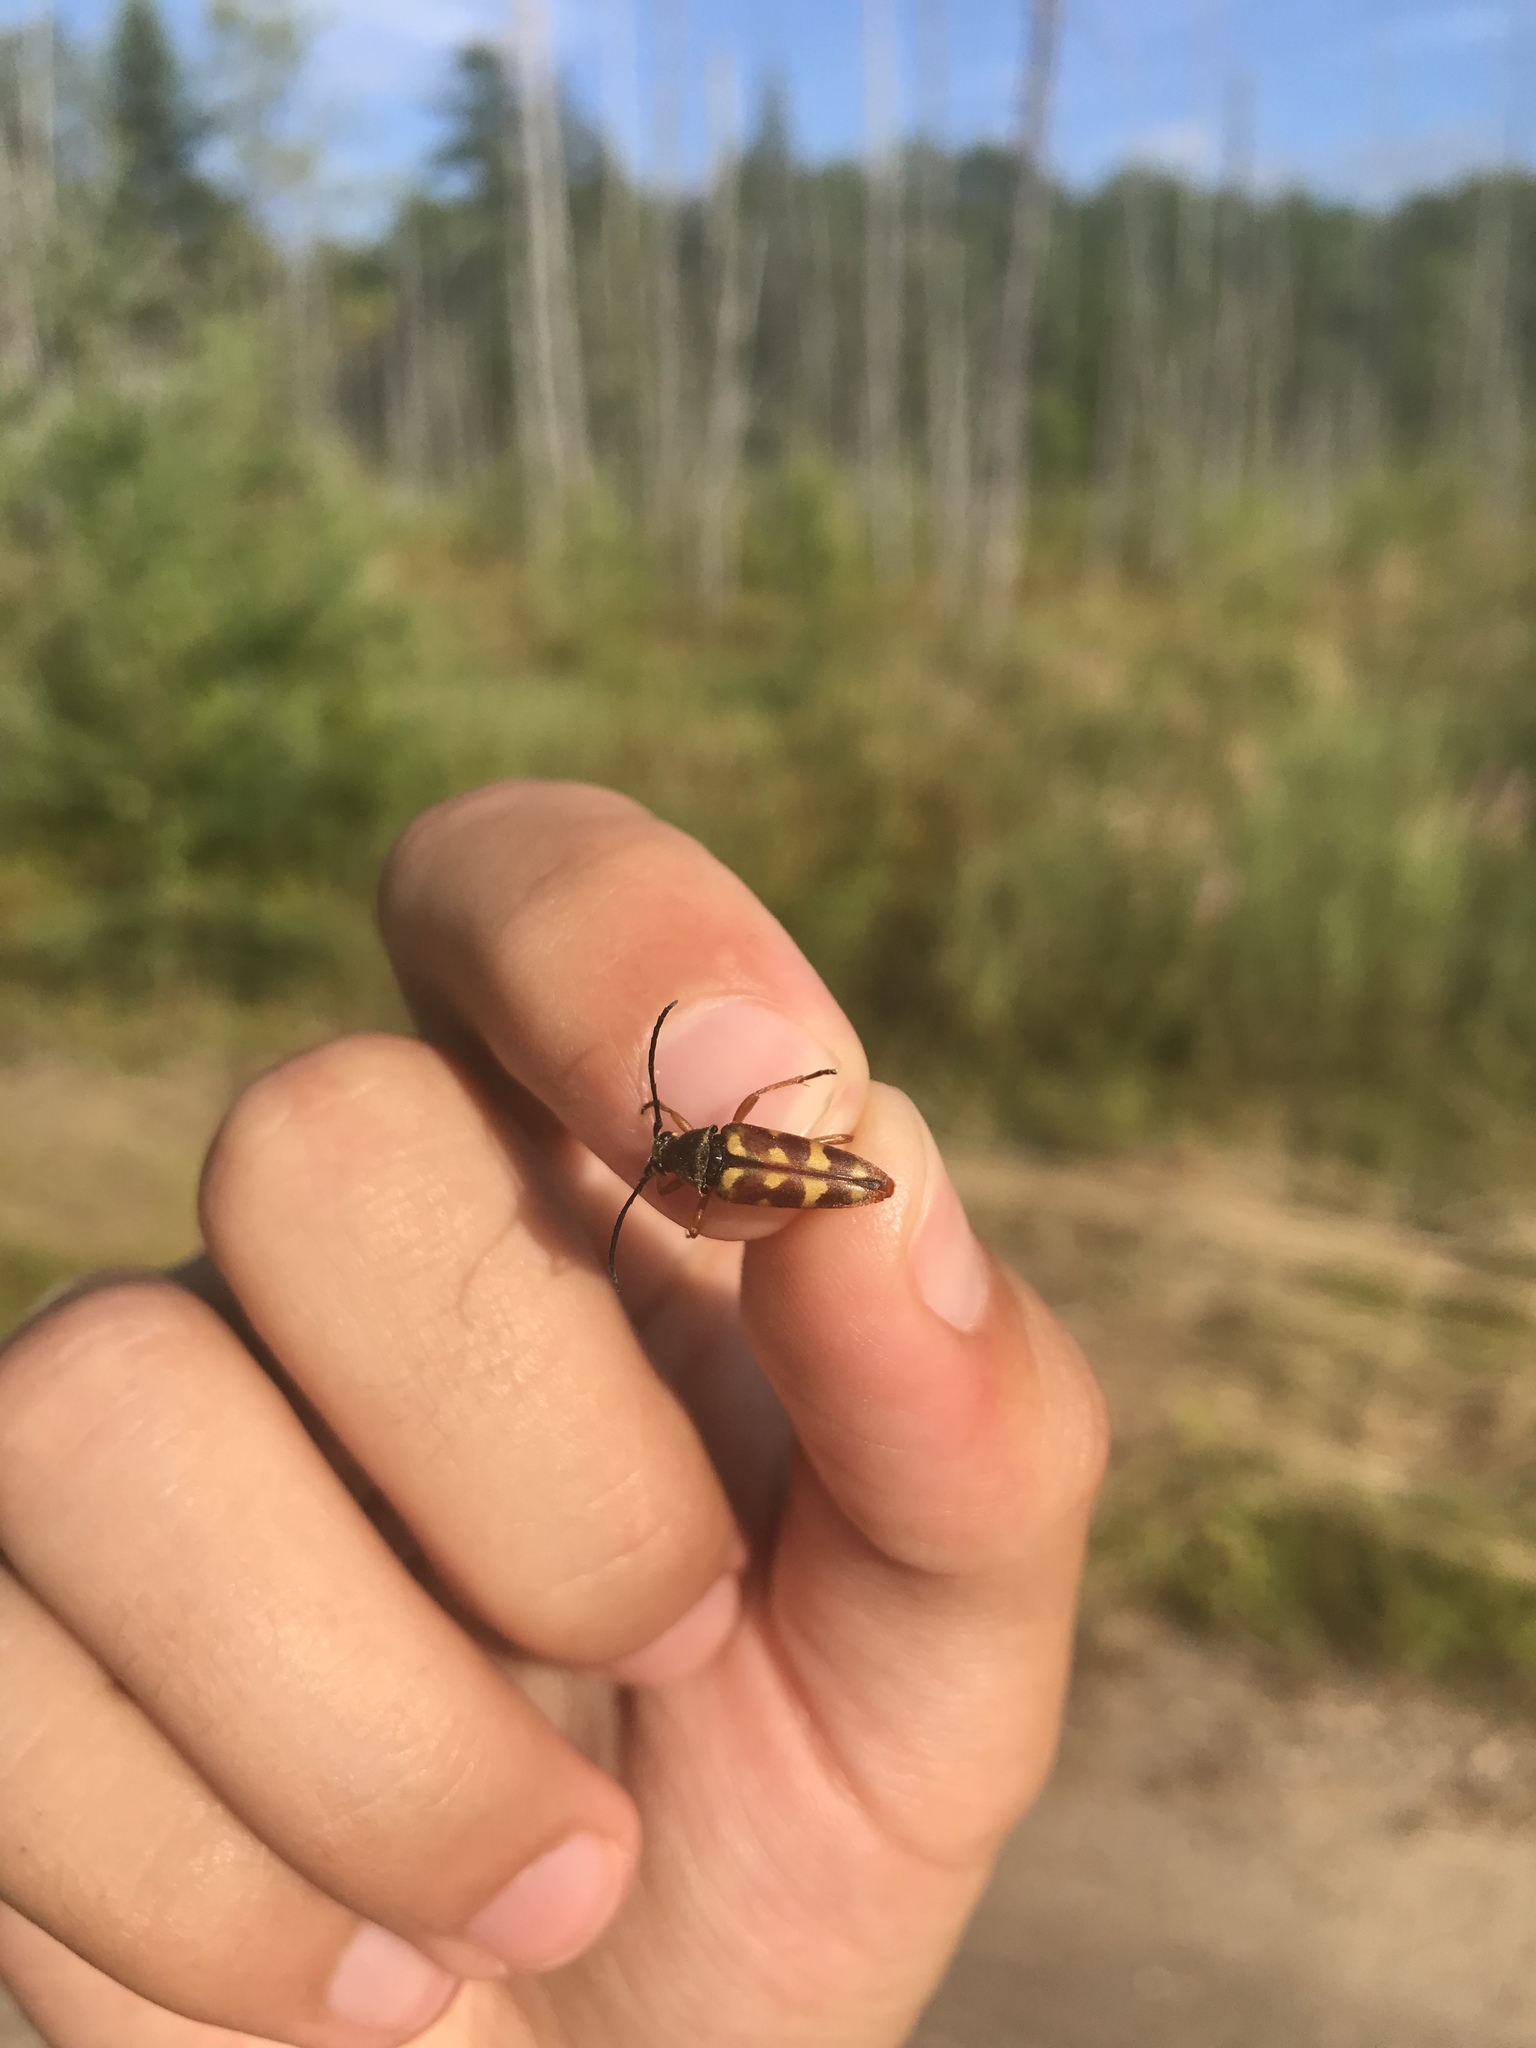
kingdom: Animalia
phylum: Arthropoda
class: Insecta
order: Coleoptera
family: Cerambycidae
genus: Typocerus
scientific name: Typocerus velutinus
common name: Banded longhorn beetle
